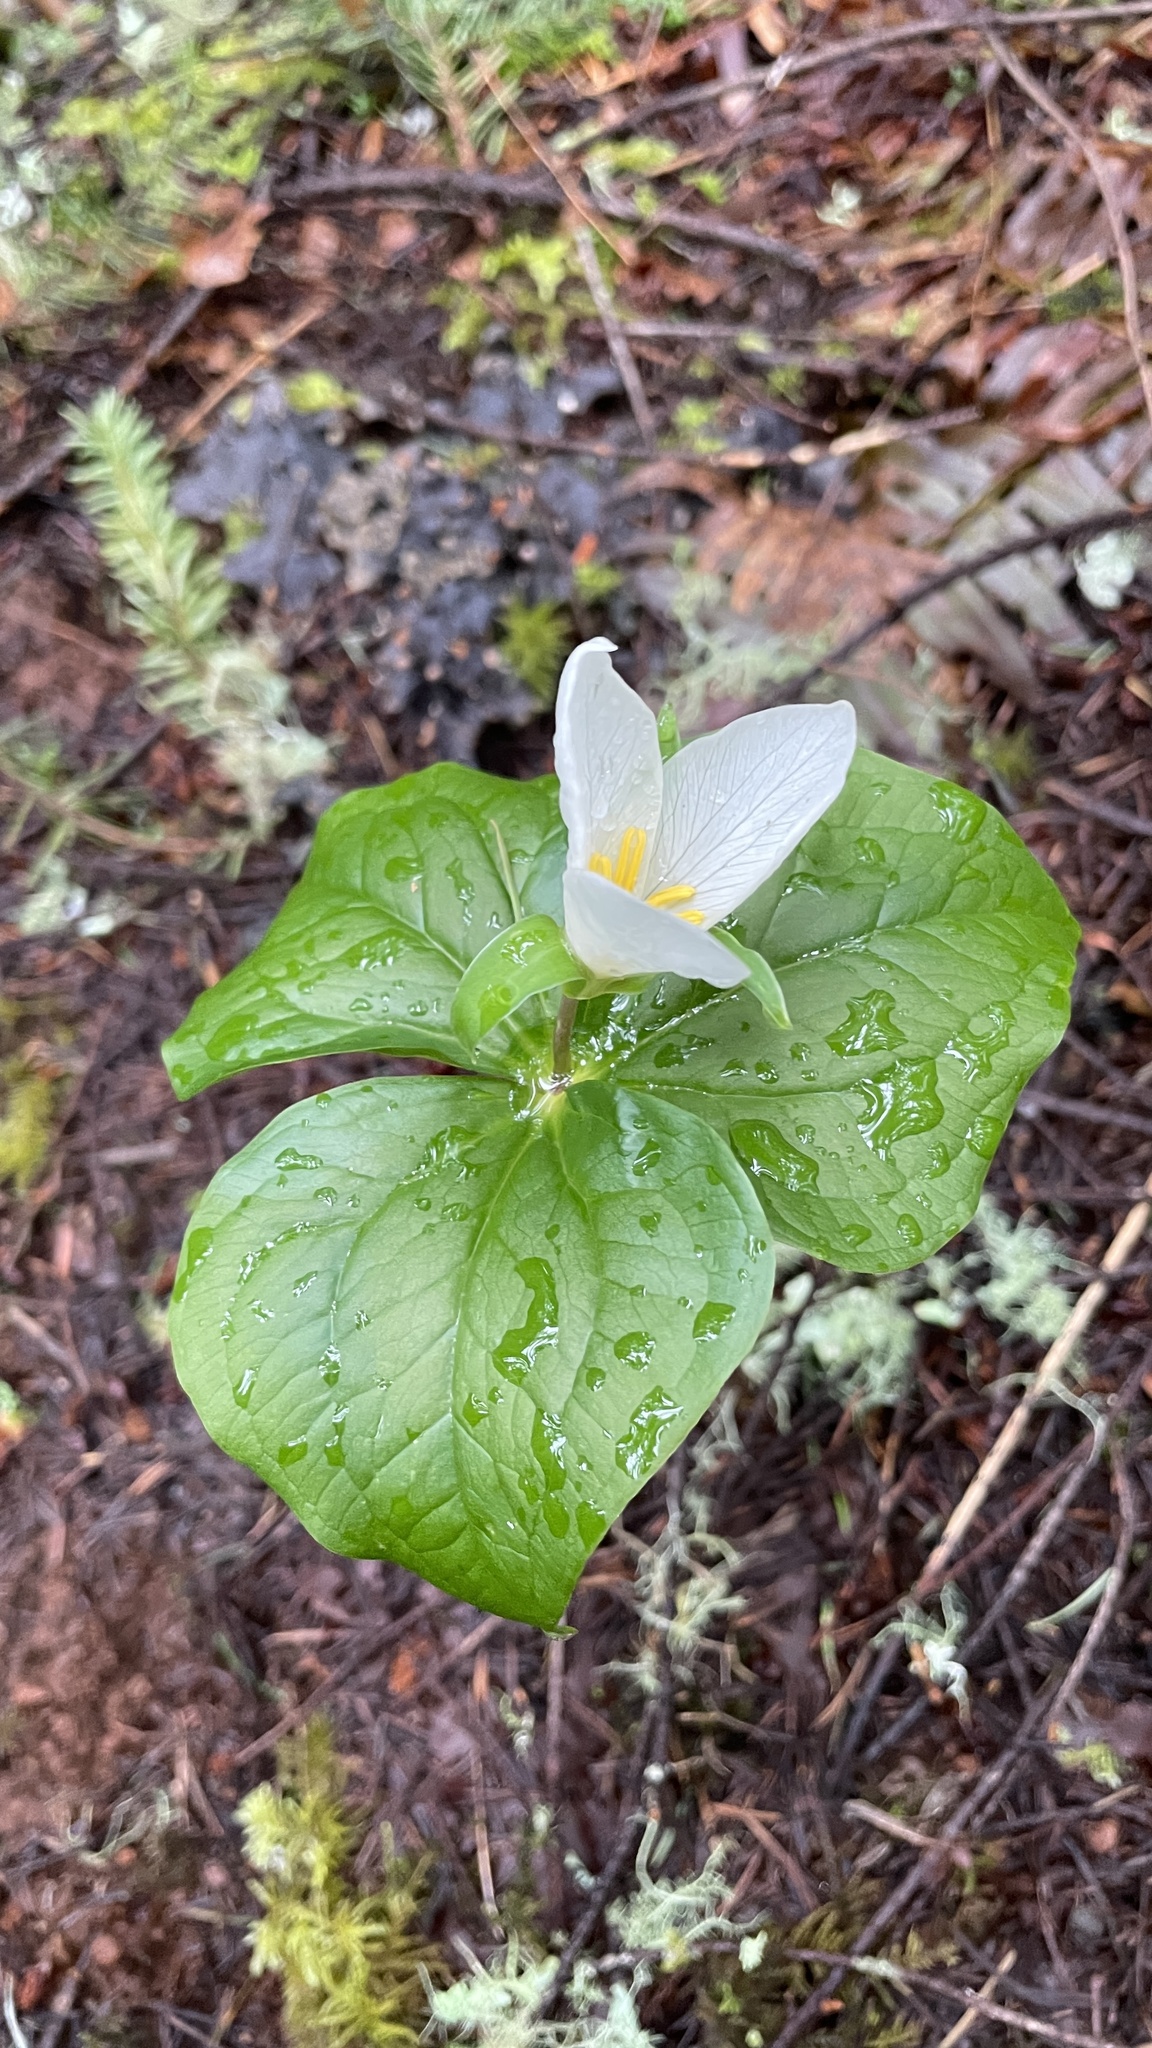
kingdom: Plantae
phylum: Tracheophyta
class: Liliopsida
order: Liliales
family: Melanthiaceae
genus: Trillium
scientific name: Trillium ovatum
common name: Pacific trillium
